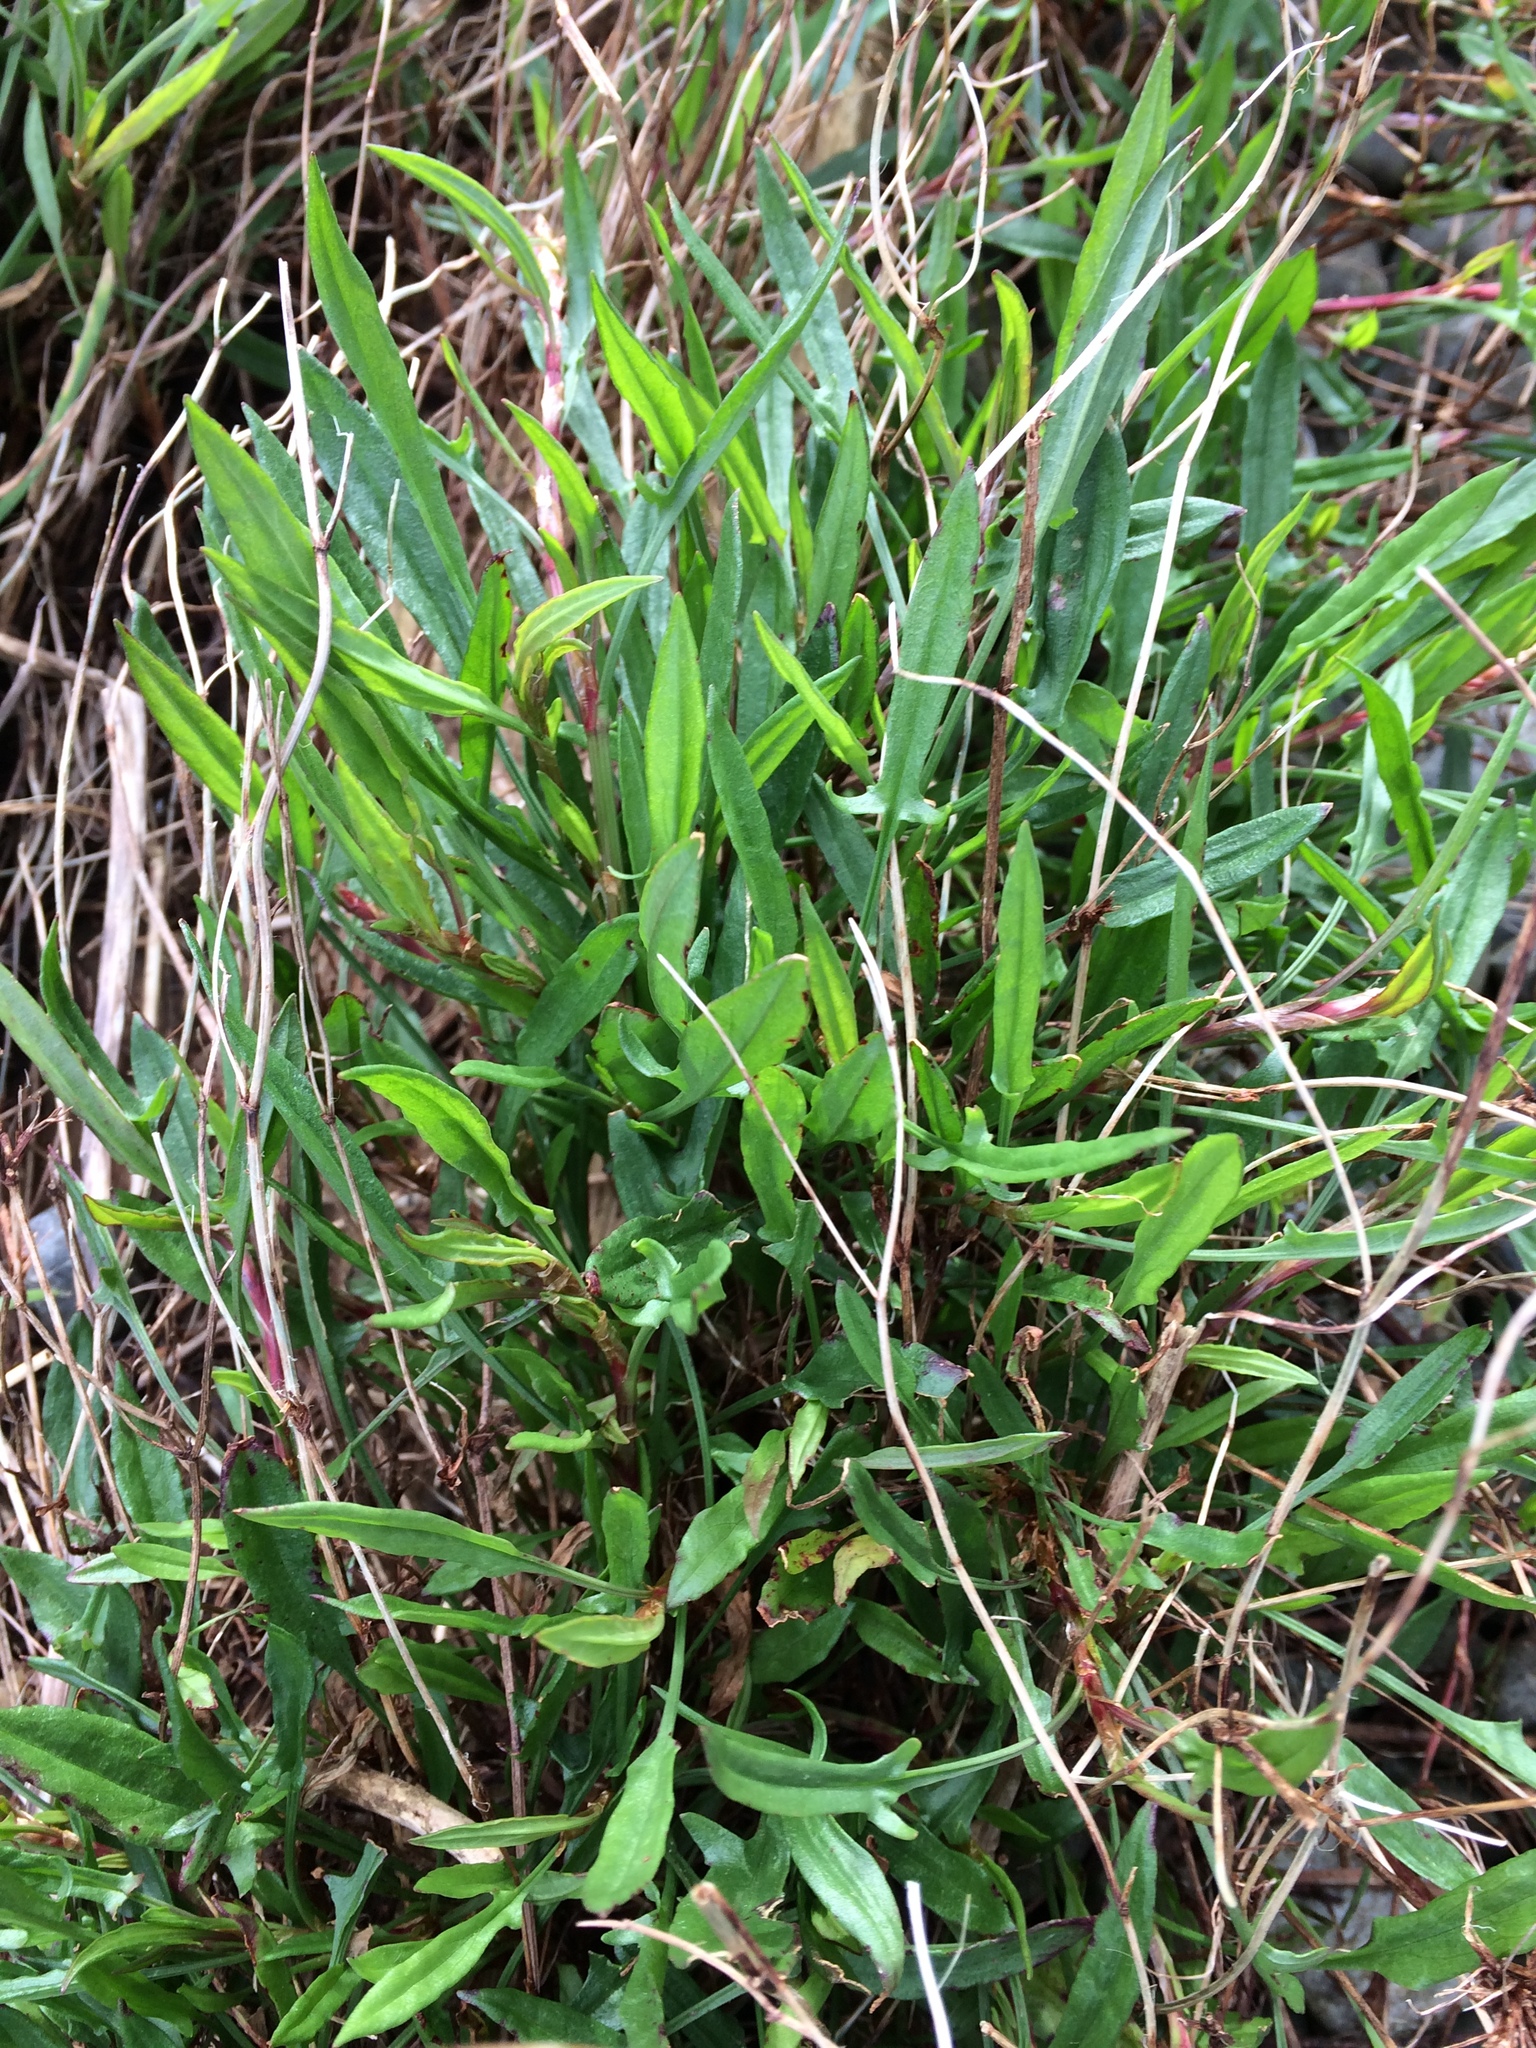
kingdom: Plantae
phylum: Tracheophyta
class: Magnoliopsida
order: Caryophyllales
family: Polygonaceae
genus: Rumex
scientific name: Rumex acetosella
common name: Common sheep sorrel
